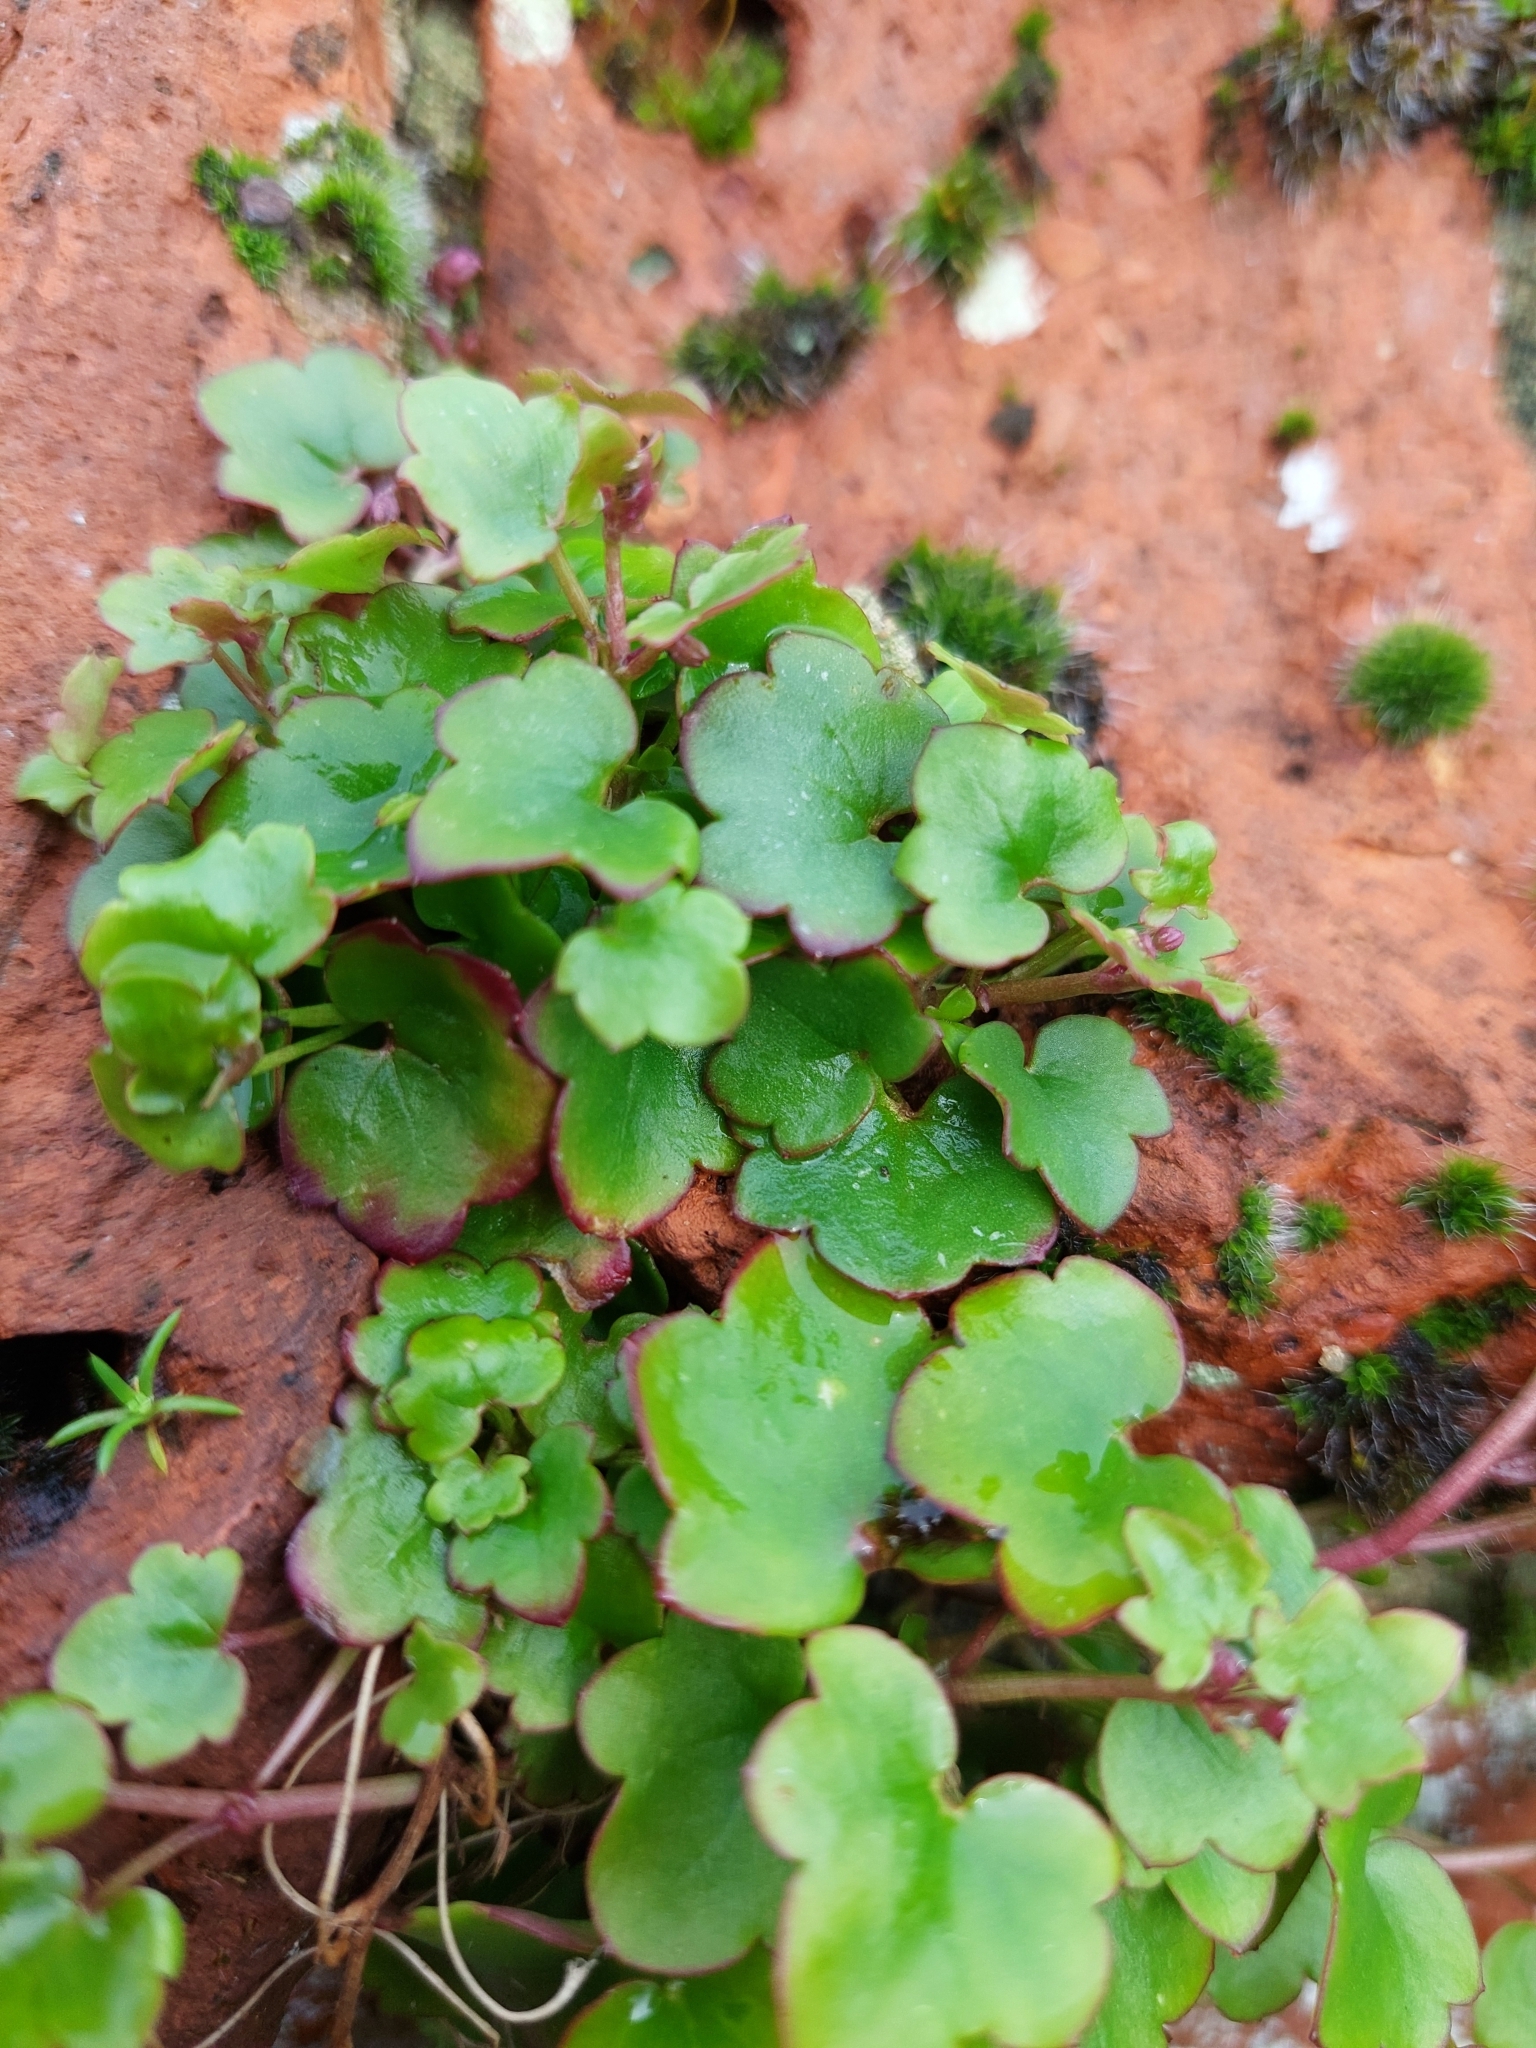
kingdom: Plantae
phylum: Tracheophyta
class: Magnoliopsida
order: Lamiales
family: Plantaginaceae
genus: Cymbalaria
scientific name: Cymbalaria muralis
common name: Ivy-leaved toadflax
